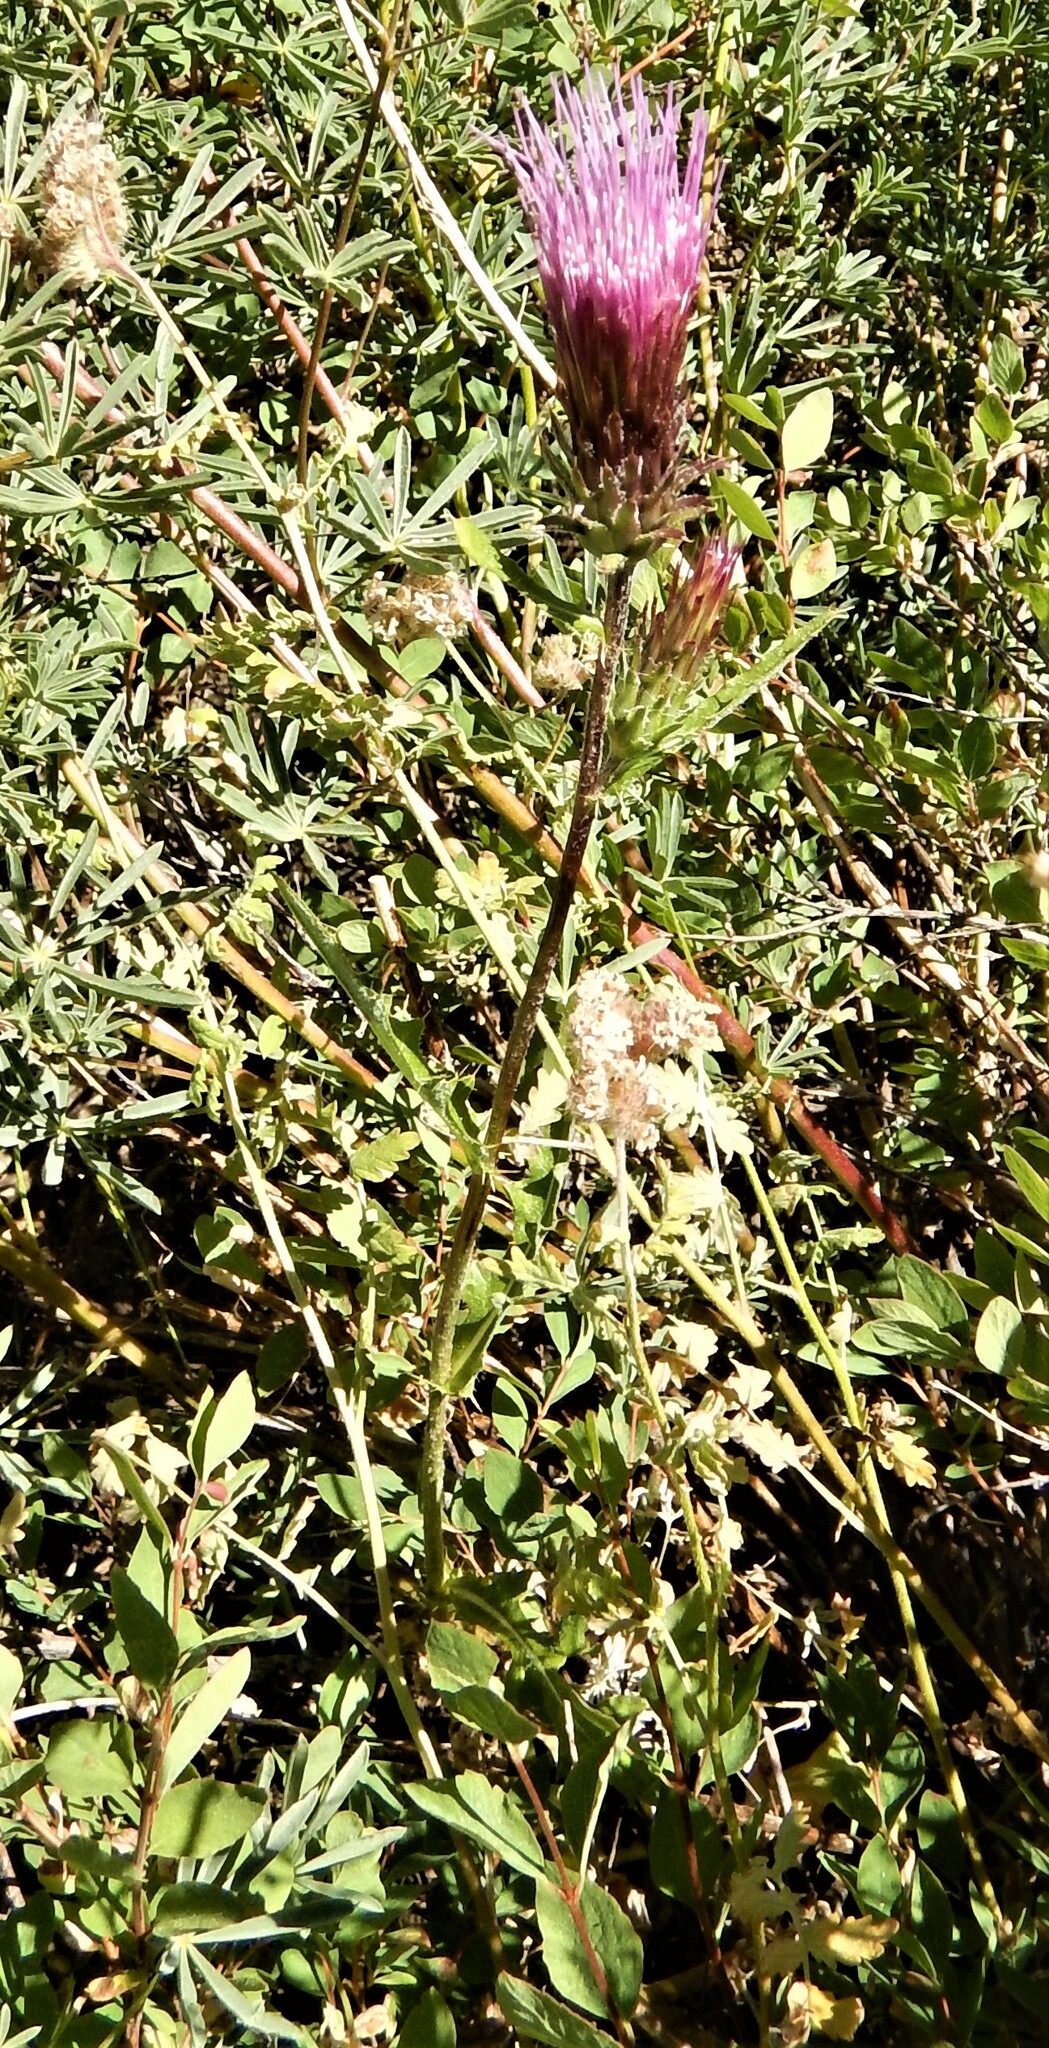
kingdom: Plantae
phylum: Tracheophyta
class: Magnoliopsida
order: Asterales
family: Asteraceae
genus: Cirsium
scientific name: Cirsium andersonii
